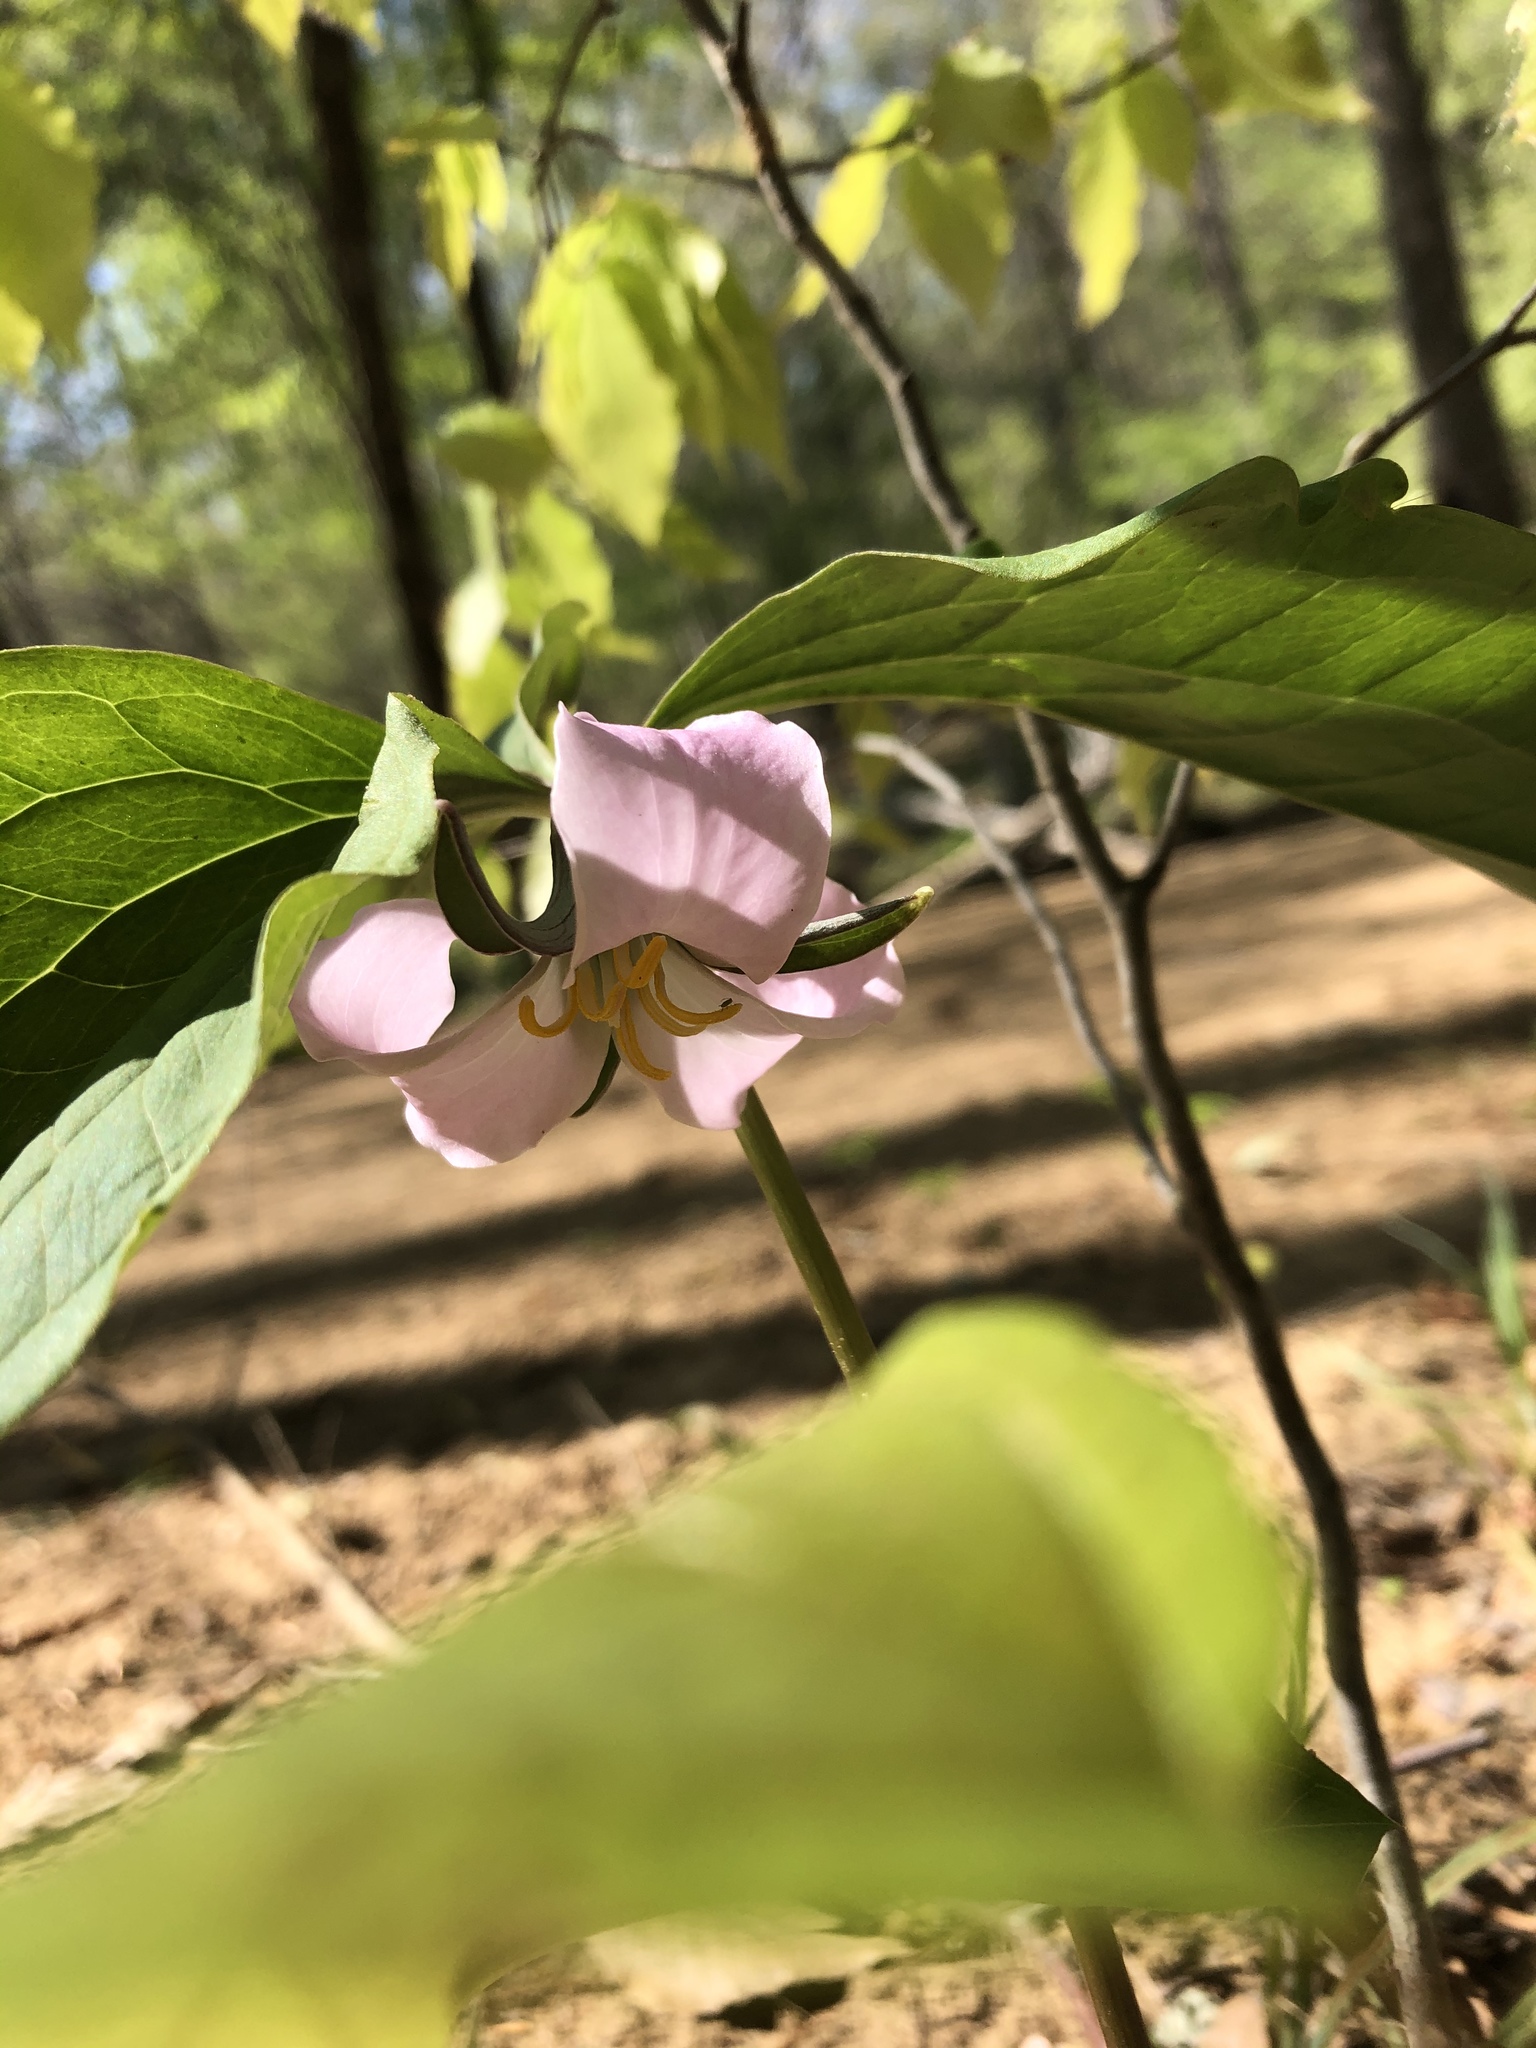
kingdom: Plantae
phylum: Tracheophyta
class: Liliopsida
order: Liliales
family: Melanthiaceae
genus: Trillium
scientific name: Trillium catesbaei
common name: Bashful trillium
